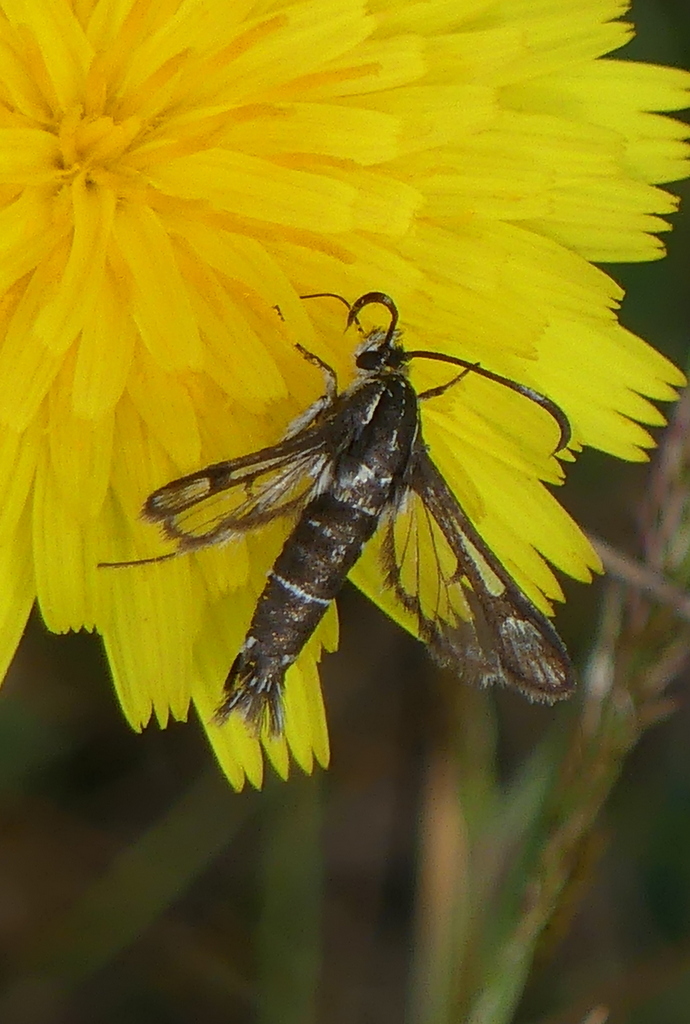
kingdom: Animalia
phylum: Arthropoda
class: Insecta
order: Lepidoptera
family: Sesiidae
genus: Pyropteron
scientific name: Pyropteron muscaeformis
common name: Thrift clearwing
